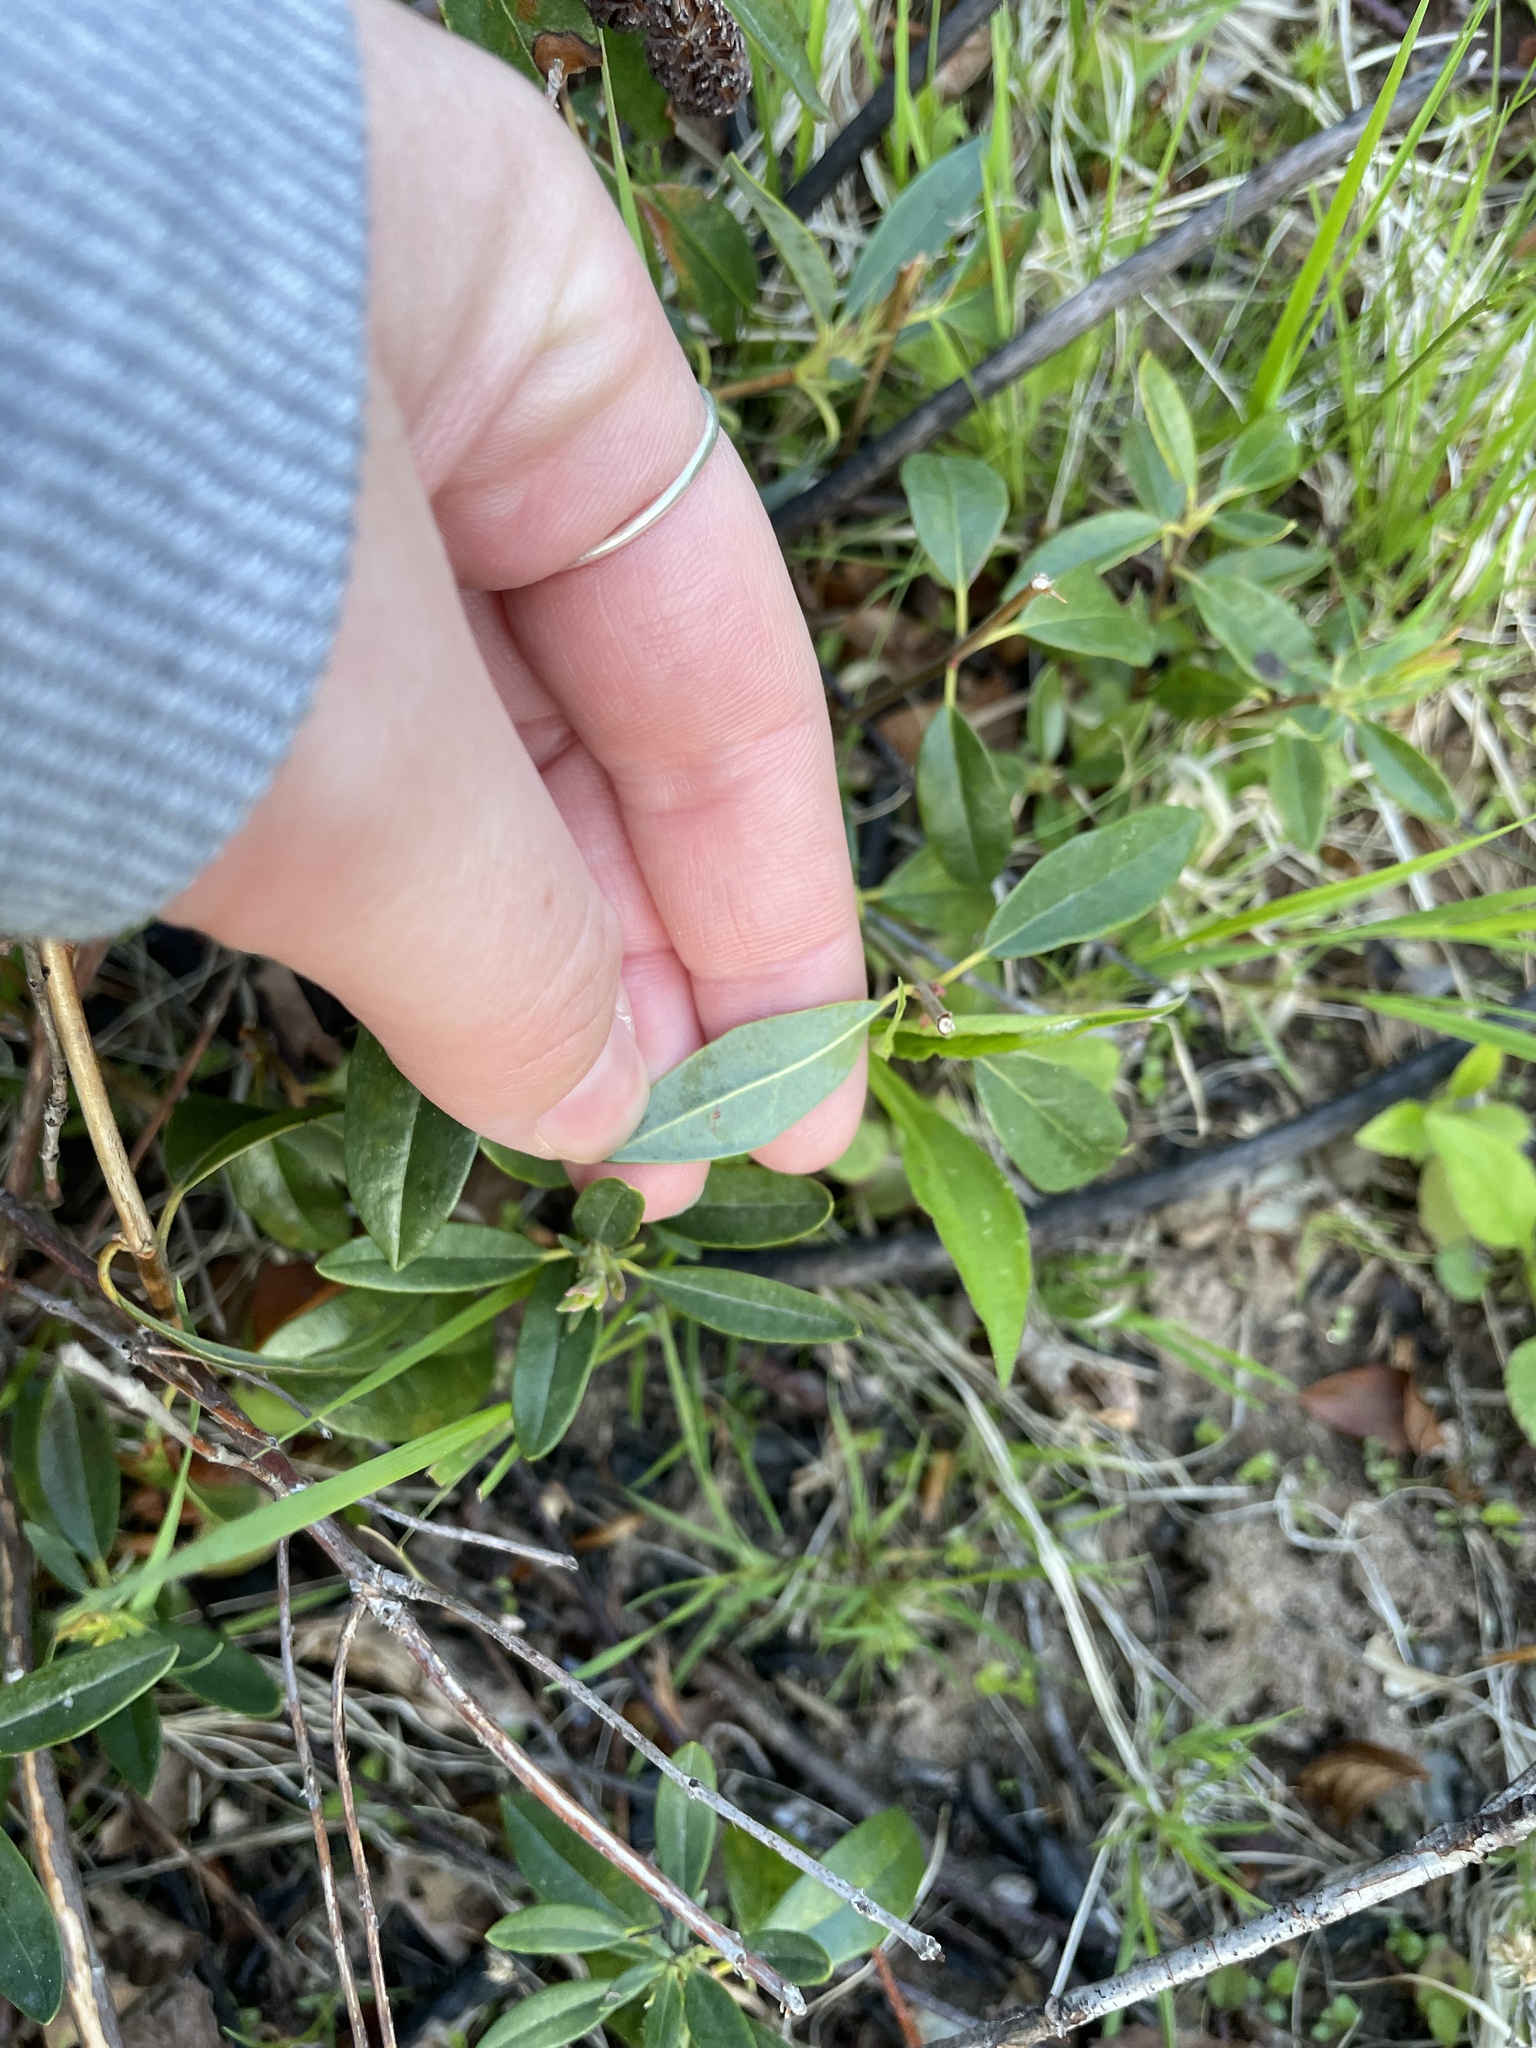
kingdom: Plantae
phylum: Tracheophyta
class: Magnoliopsida
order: Ericales
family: Ericaceae
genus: Kalmia
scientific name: Kalmia angustifolia
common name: Sheep-laurel
